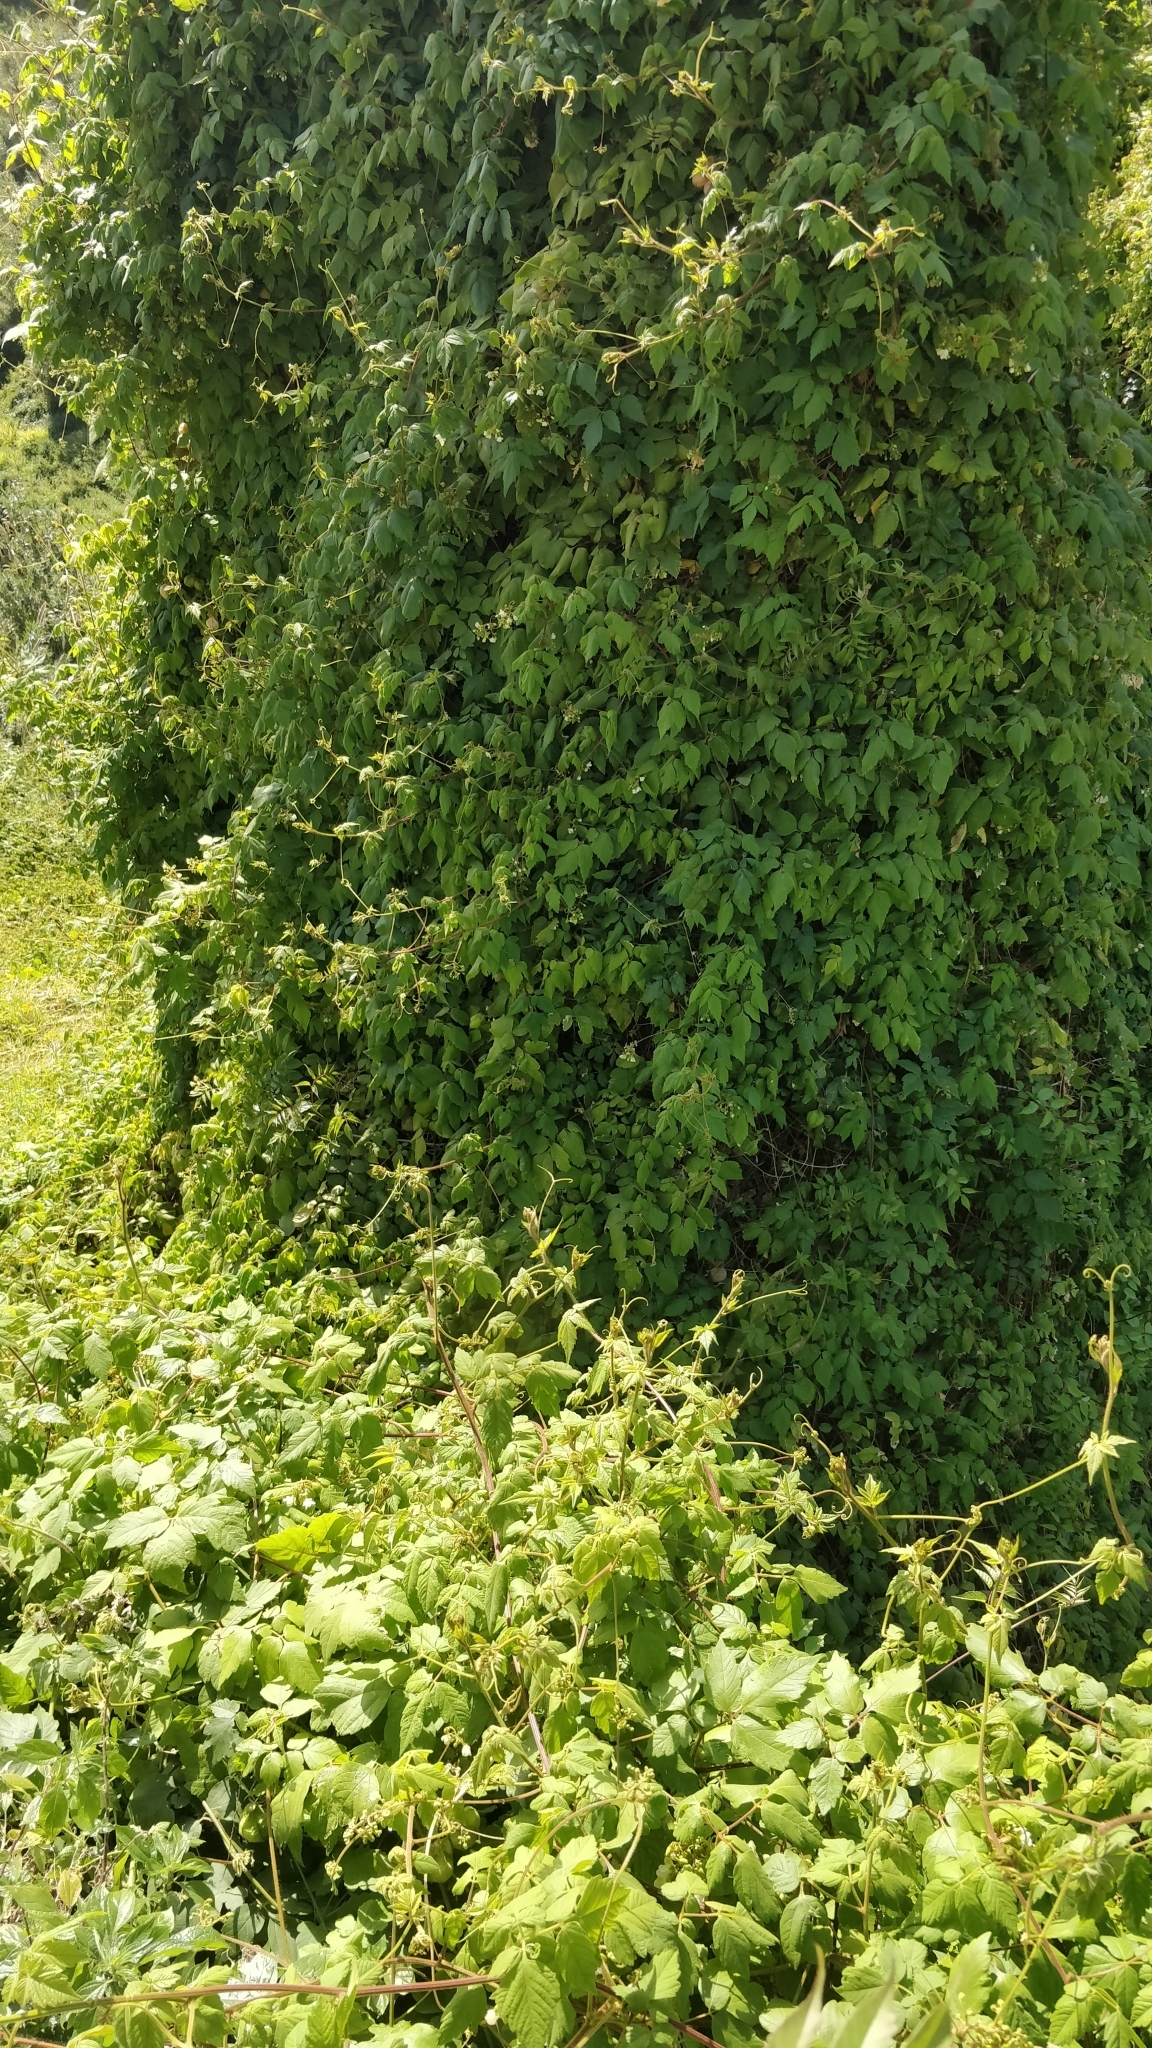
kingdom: Plantae
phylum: Tracheophyta
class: Magnoliopsida
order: Sapindales
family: Sapindaceae
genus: Cardiospermum
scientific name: Cardiospermum grandiflorum
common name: Balloon vine
